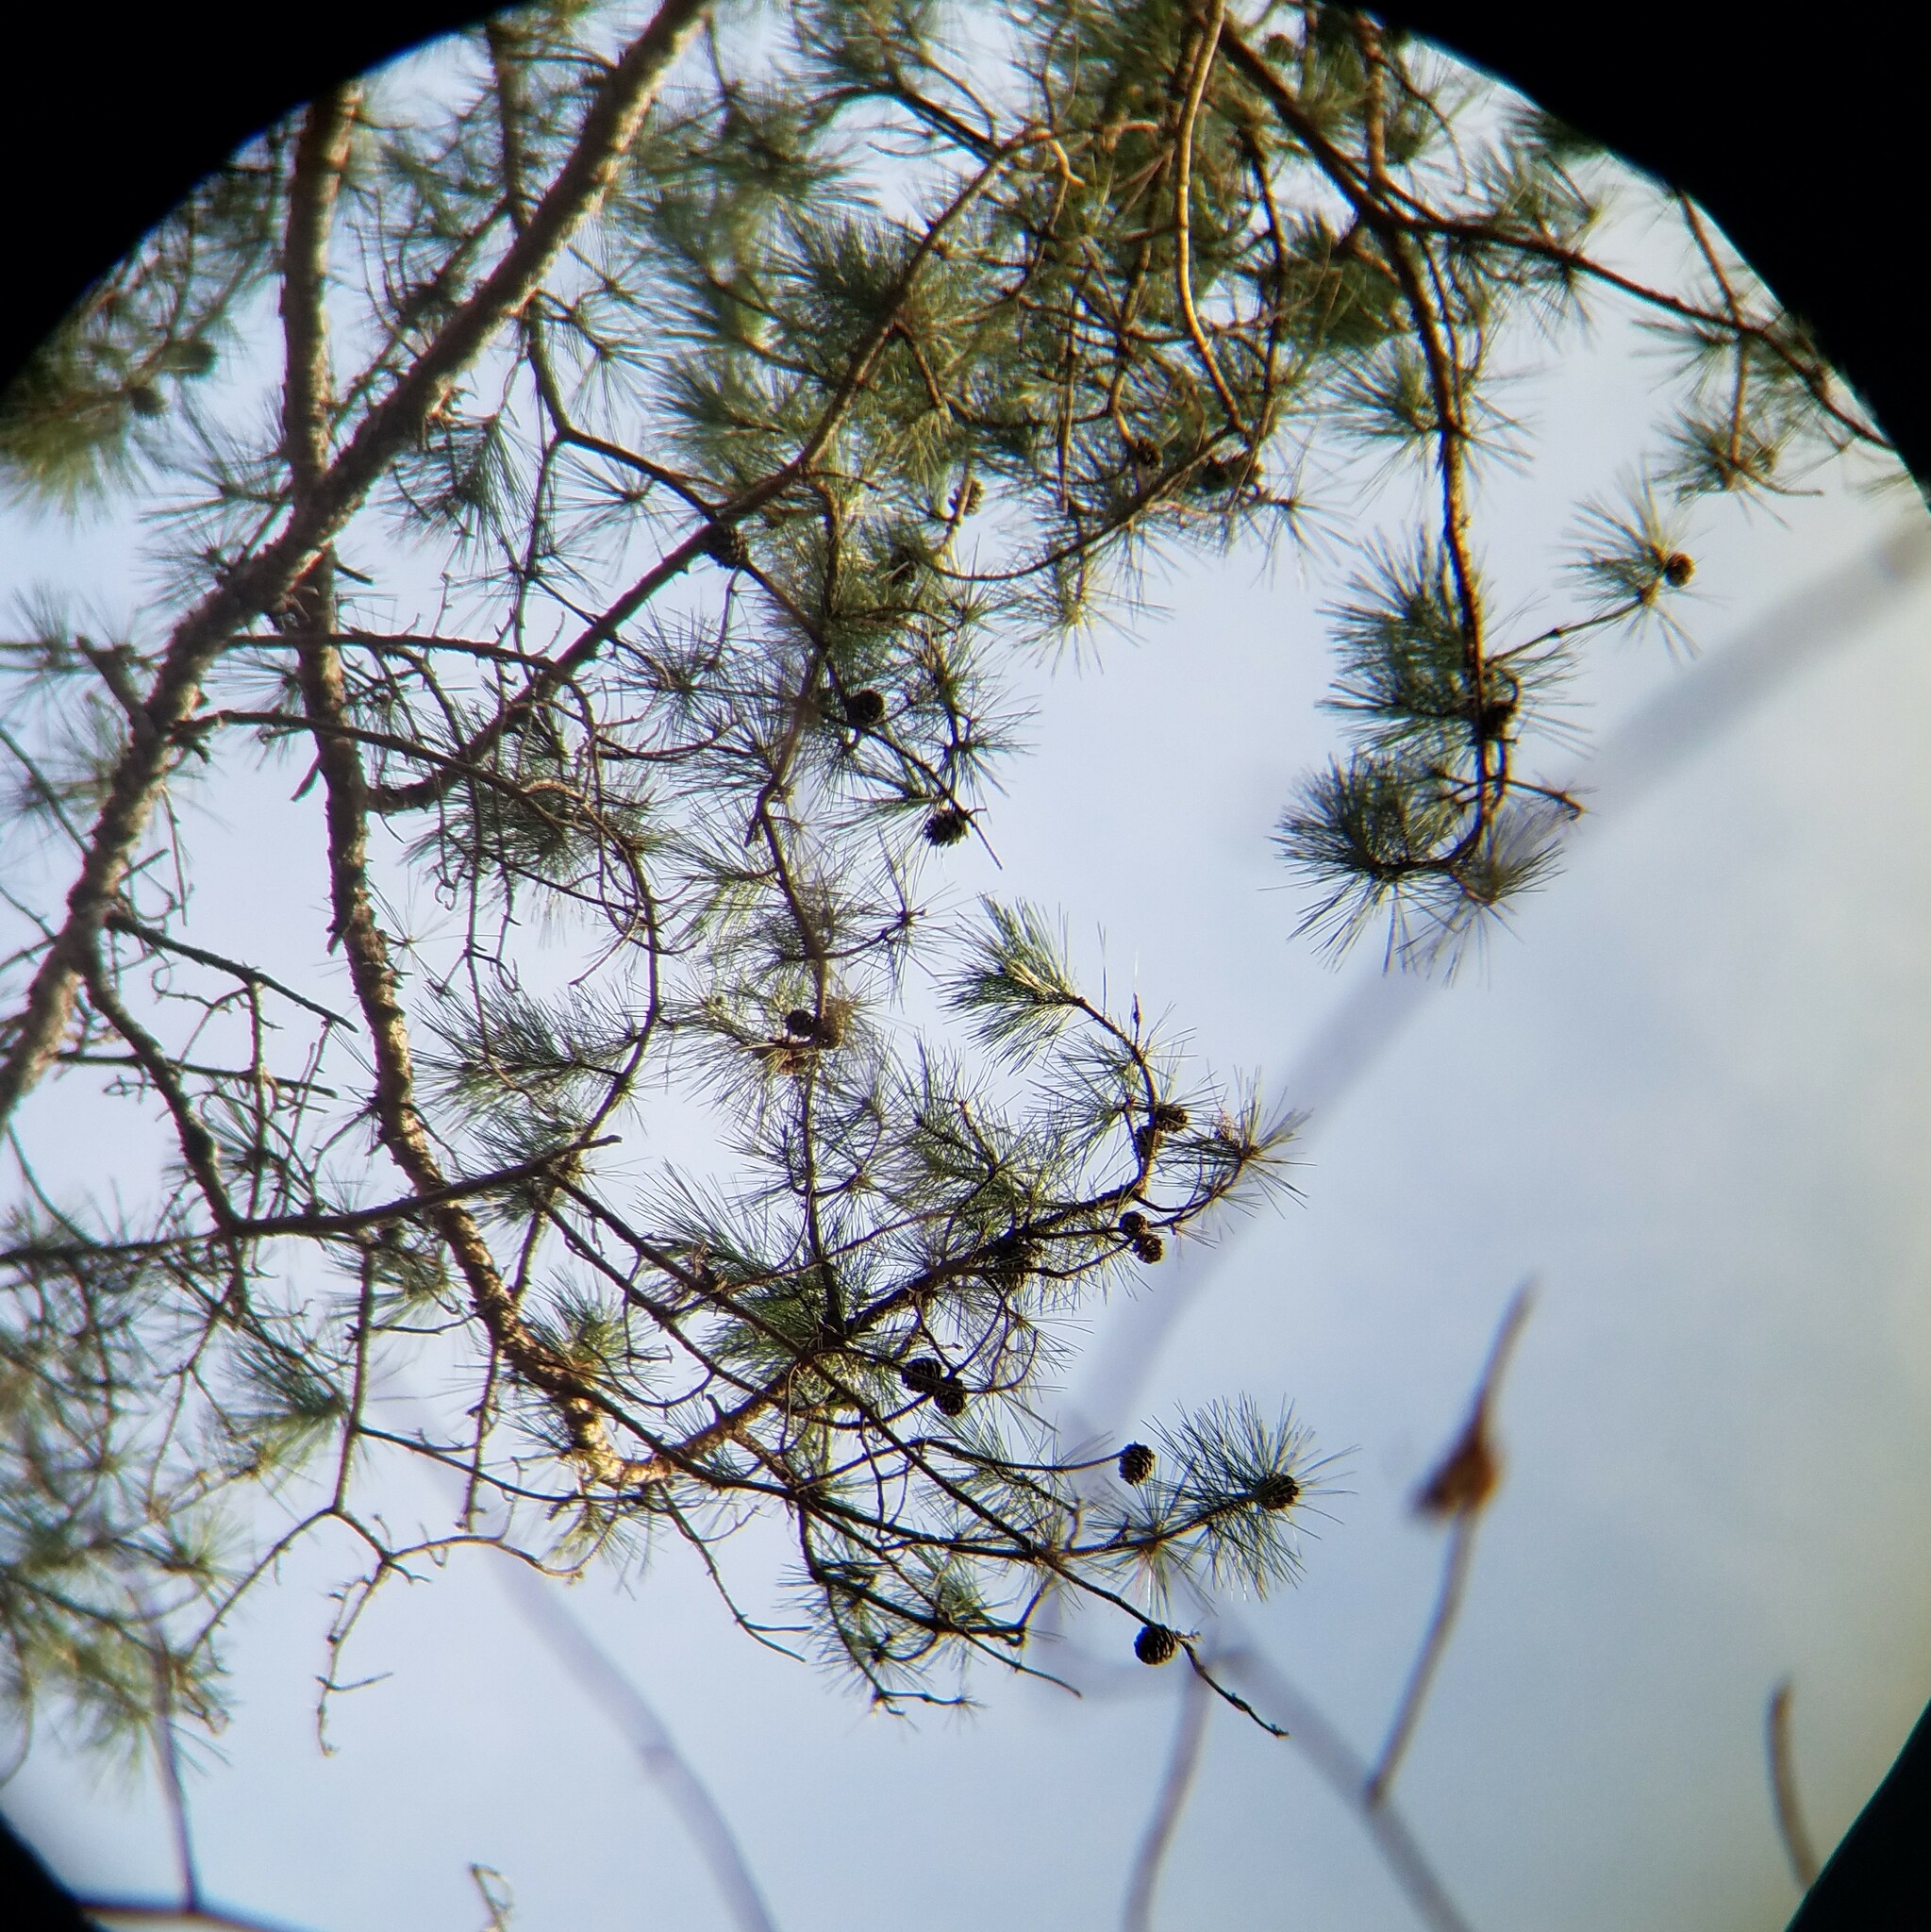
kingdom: Plantae
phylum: Tracheophyta
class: Pinopsida
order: Pinales
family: Pinaceae
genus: Pinus
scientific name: Pinus glabra
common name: Spruce pine
